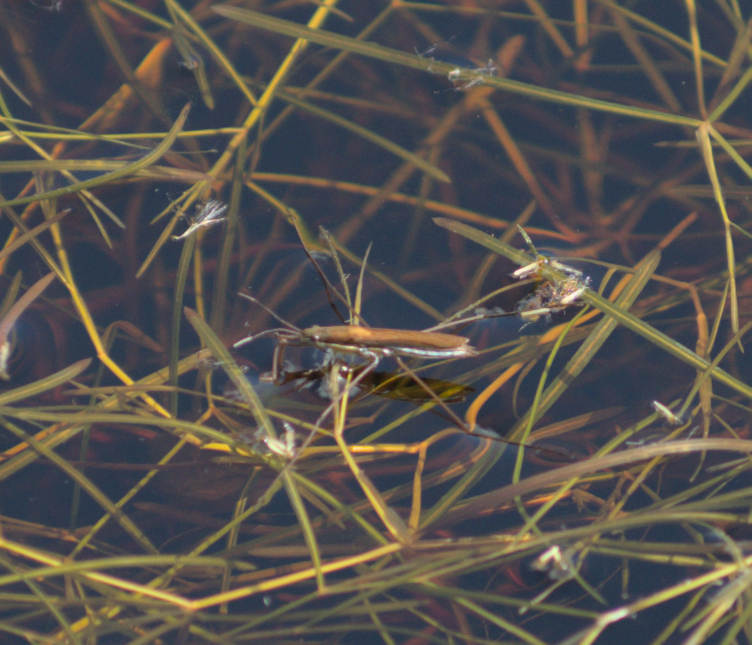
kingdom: Animalia
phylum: Arthropoda
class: Insecta
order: Hemiptera
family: Gerridae
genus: Limnoporus
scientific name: Limnoporus dissortis
